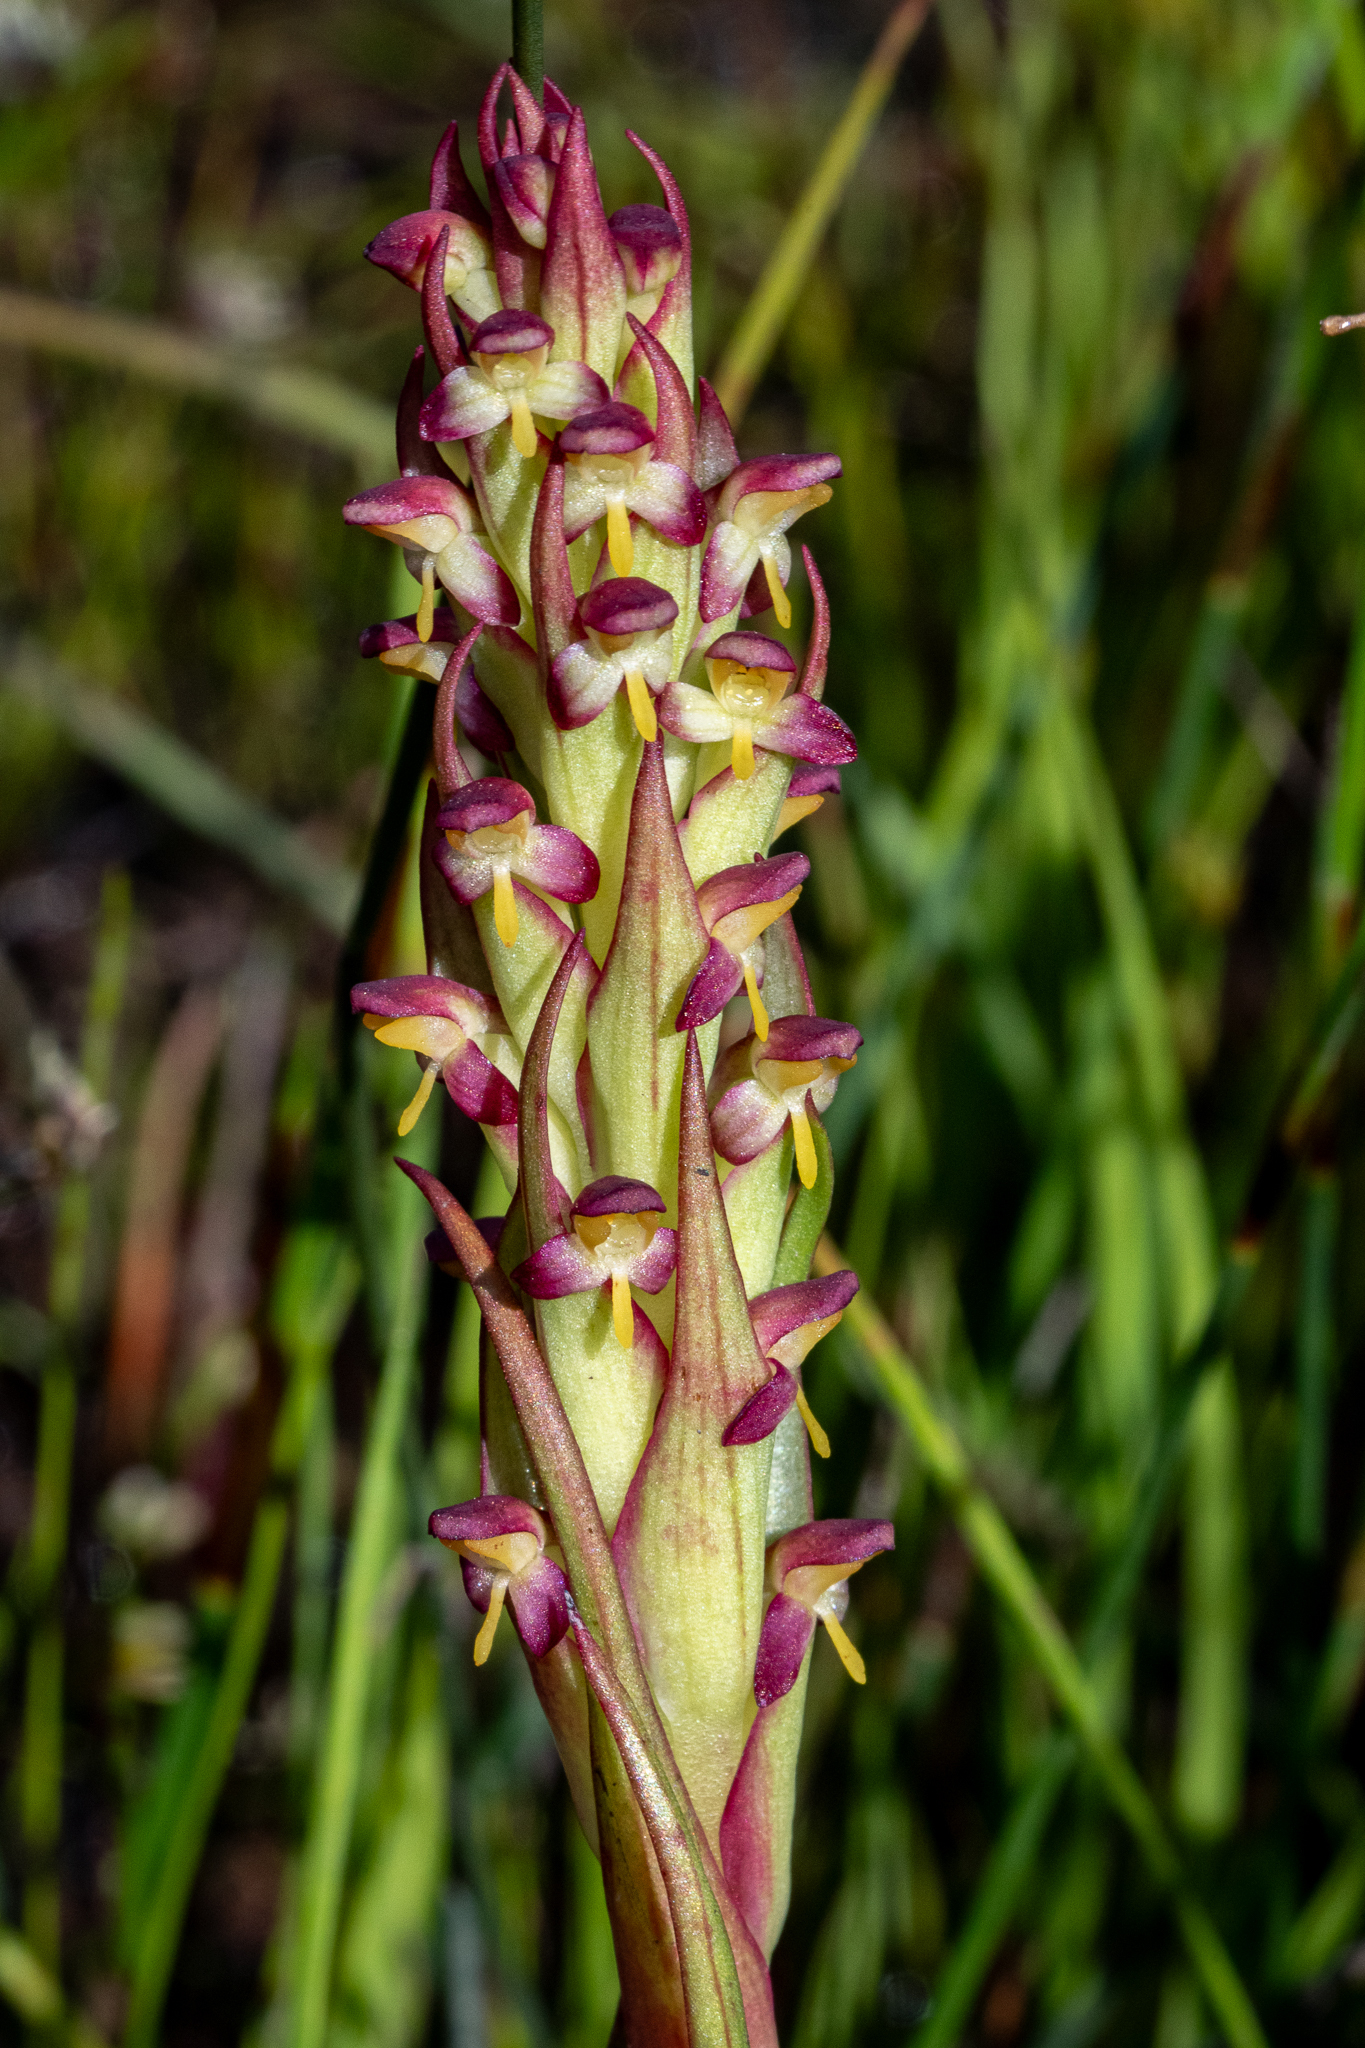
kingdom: Plantae
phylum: Tracheophyta
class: Liliopsida
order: Asparagales
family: Orchidaceae
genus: Disa
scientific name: Disa bracteata
